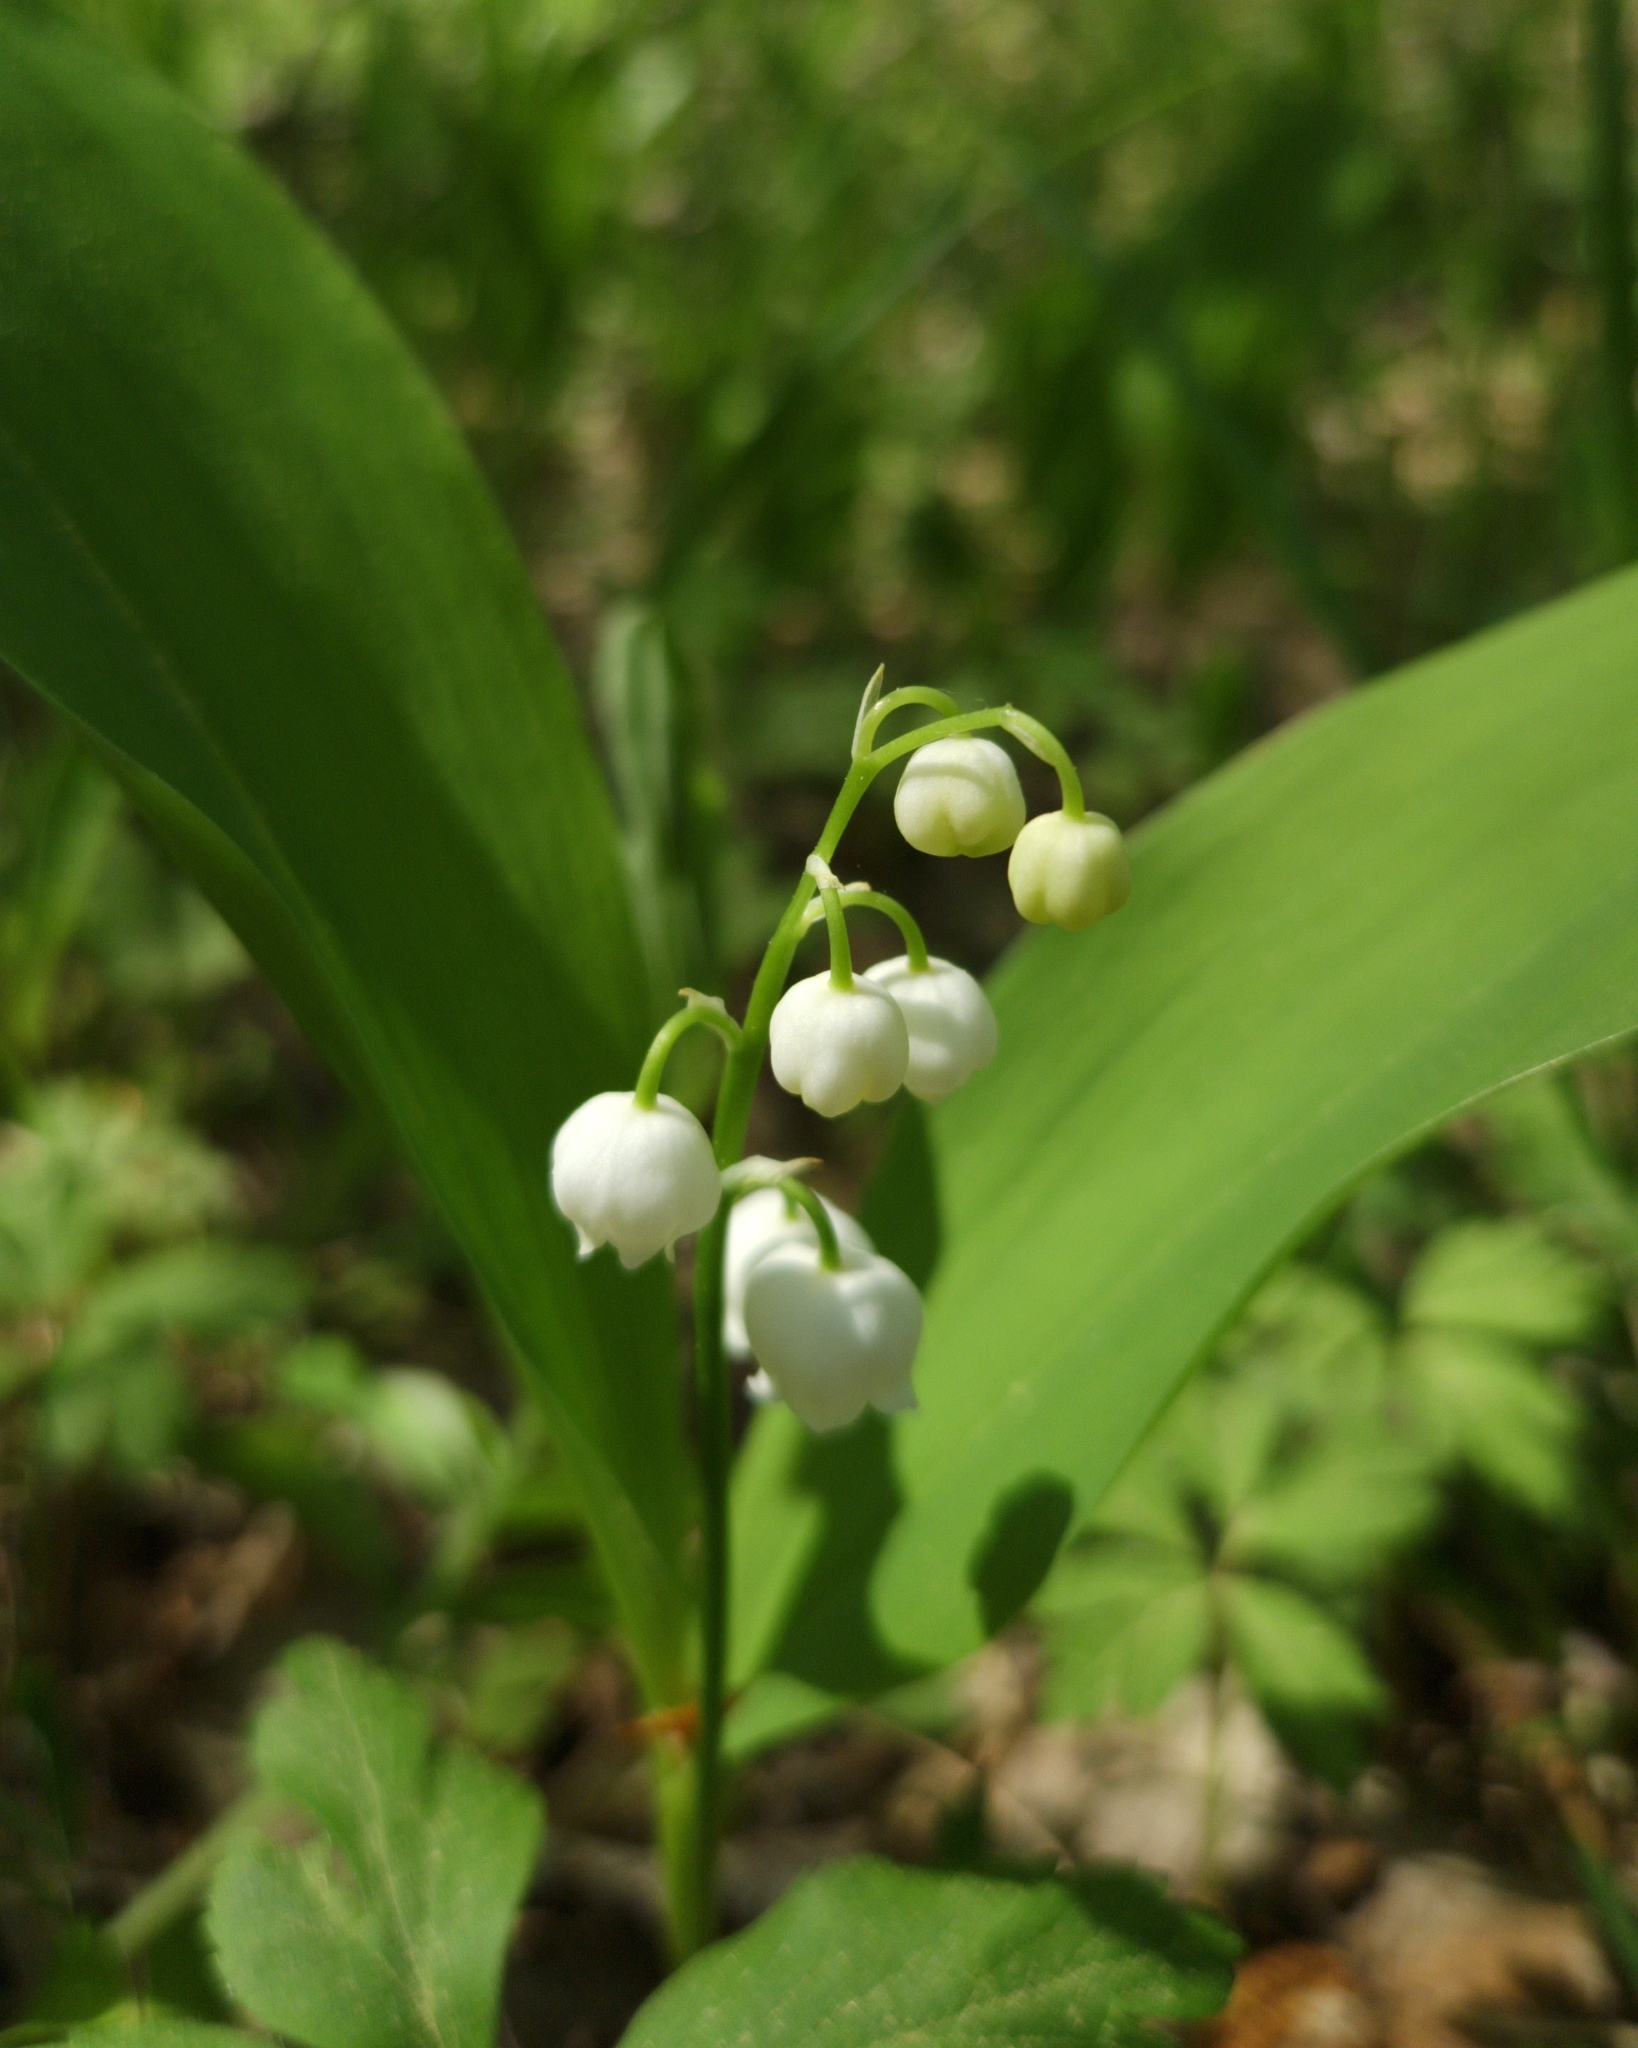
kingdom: Plantae
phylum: Tracheophyta
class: Liliopsida
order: Asparagales
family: Asparagaceae
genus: Convallaria
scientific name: Convallaria majalis
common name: Lily-of-the-valley
